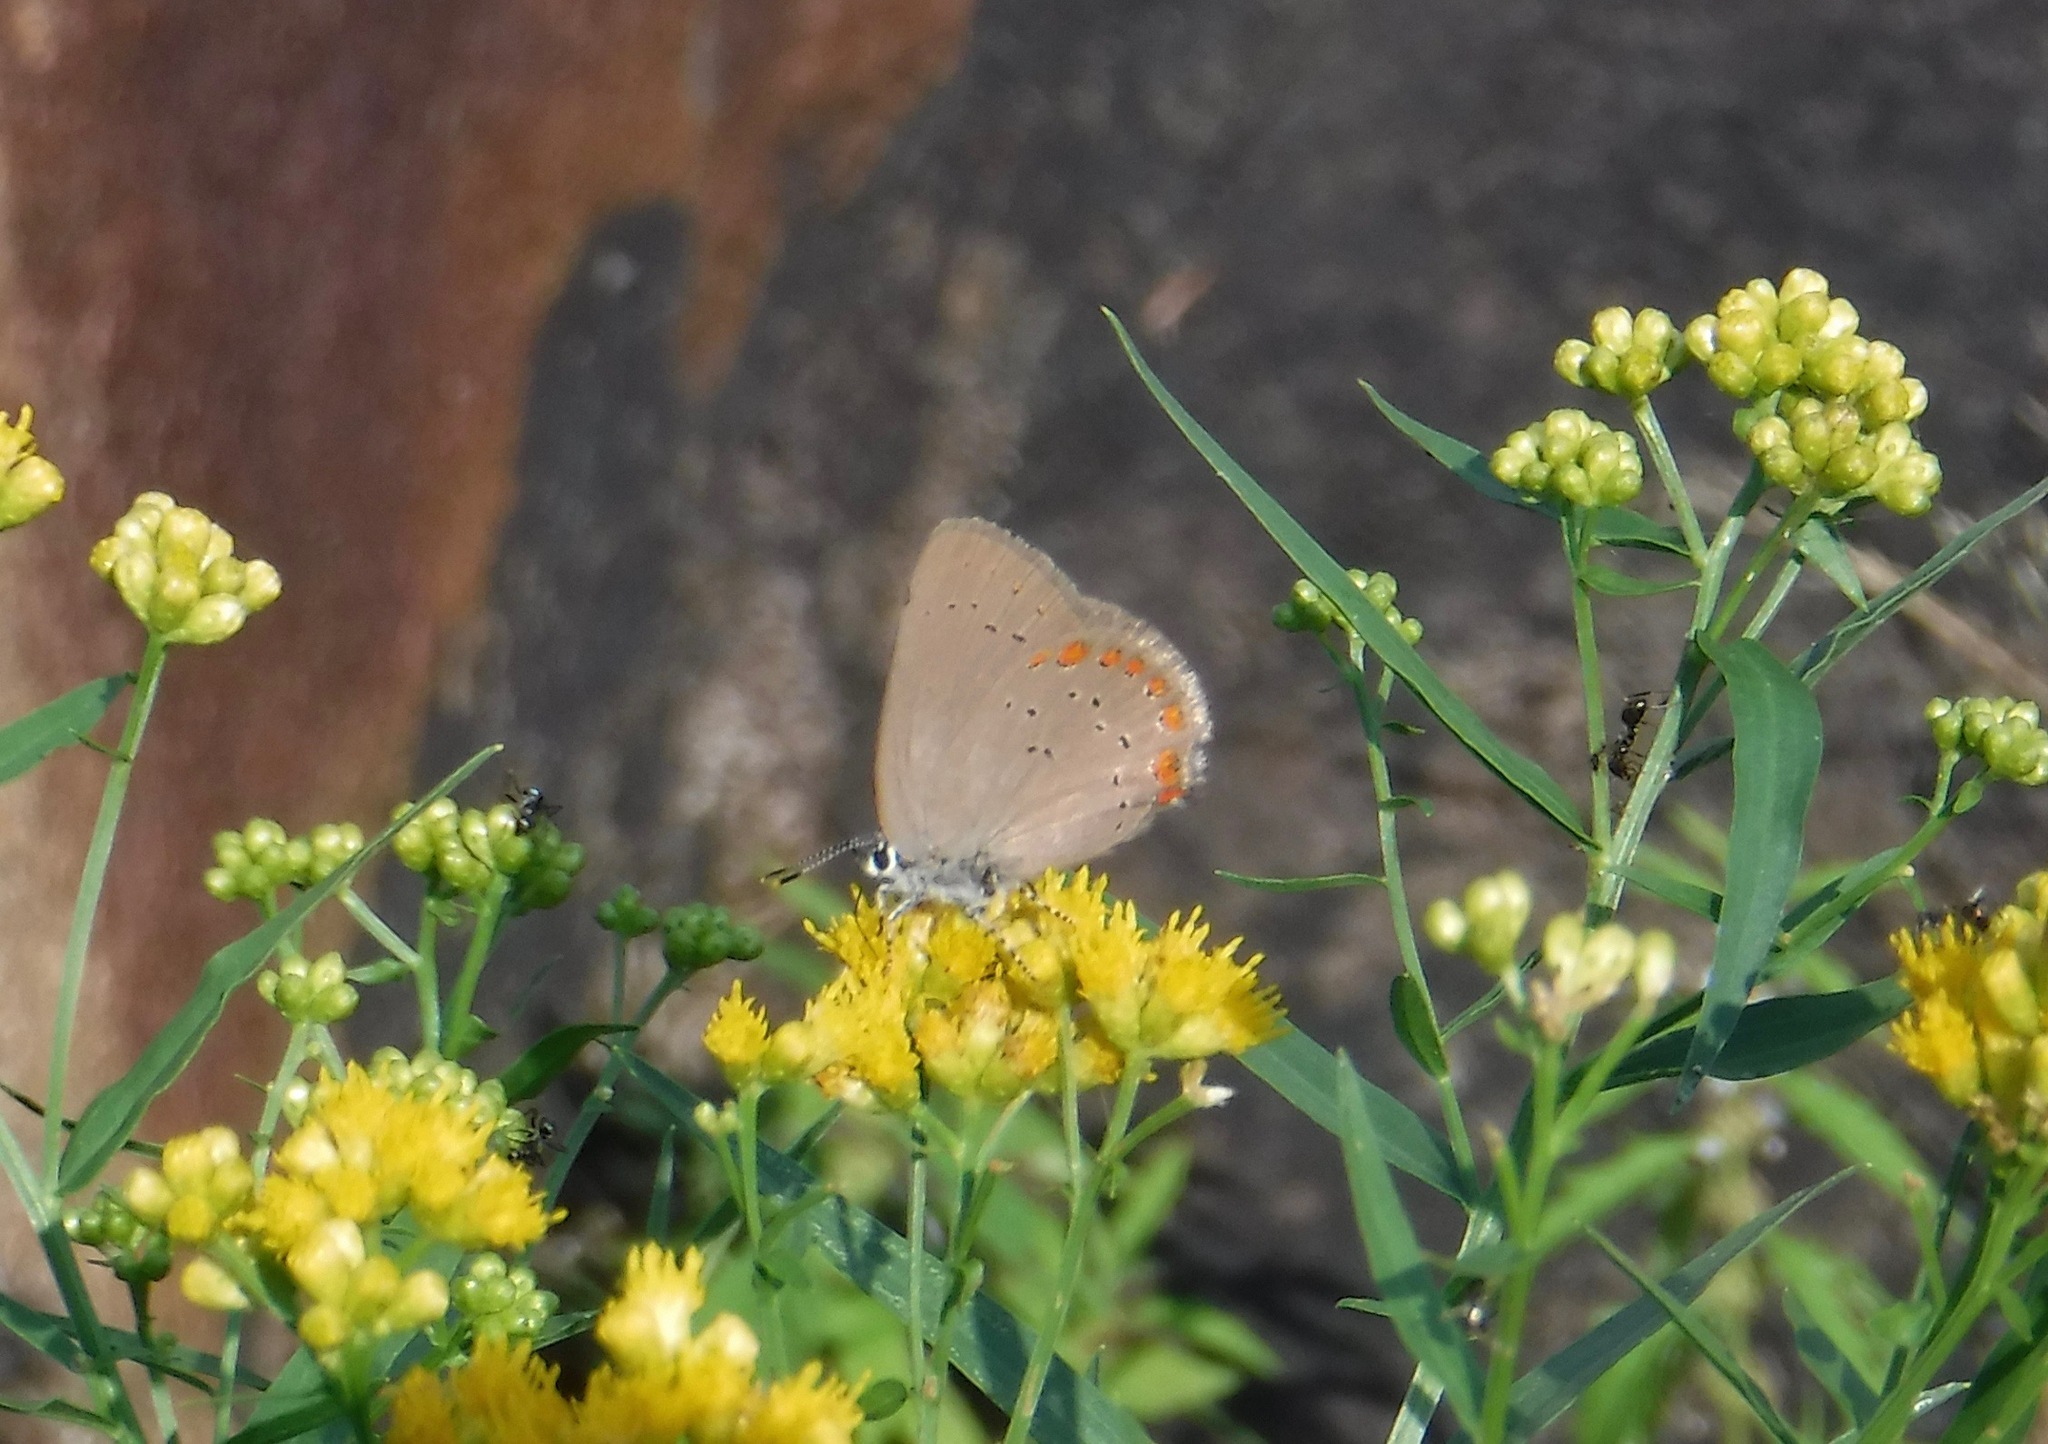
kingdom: Animalia
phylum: Arthropoda
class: Insecta
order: Lepidoptera
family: Lycaenidae
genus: Harkenclenus
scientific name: Harkenclenus titus
